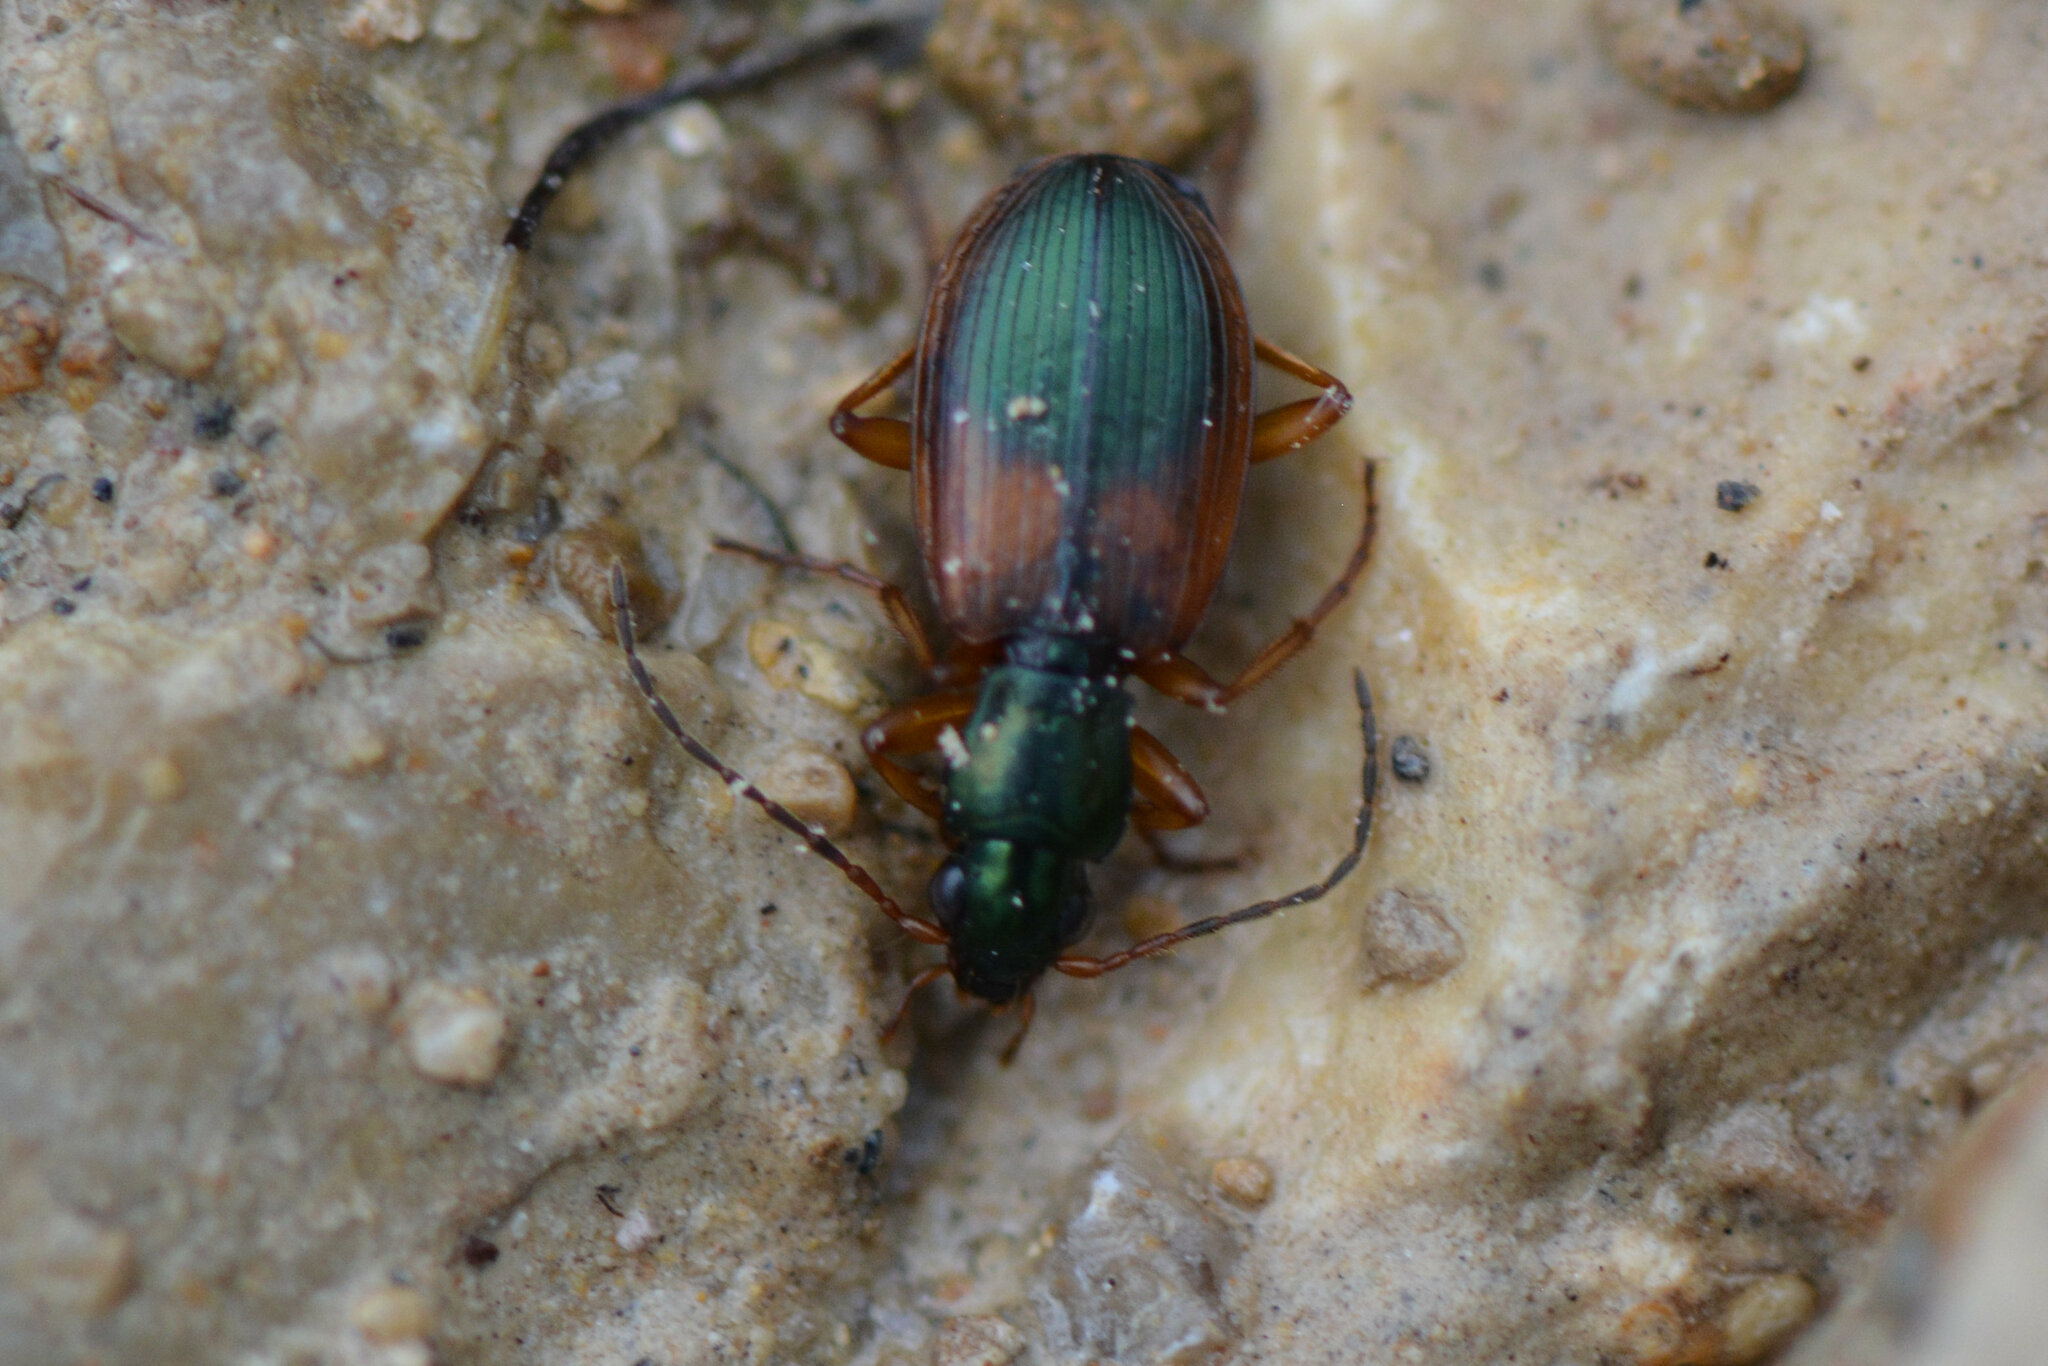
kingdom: Animalia
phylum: Arthropoda
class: Insecta
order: Coleoptera
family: Carabidae
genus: Anchomenus
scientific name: Anchomenus dorsalis
